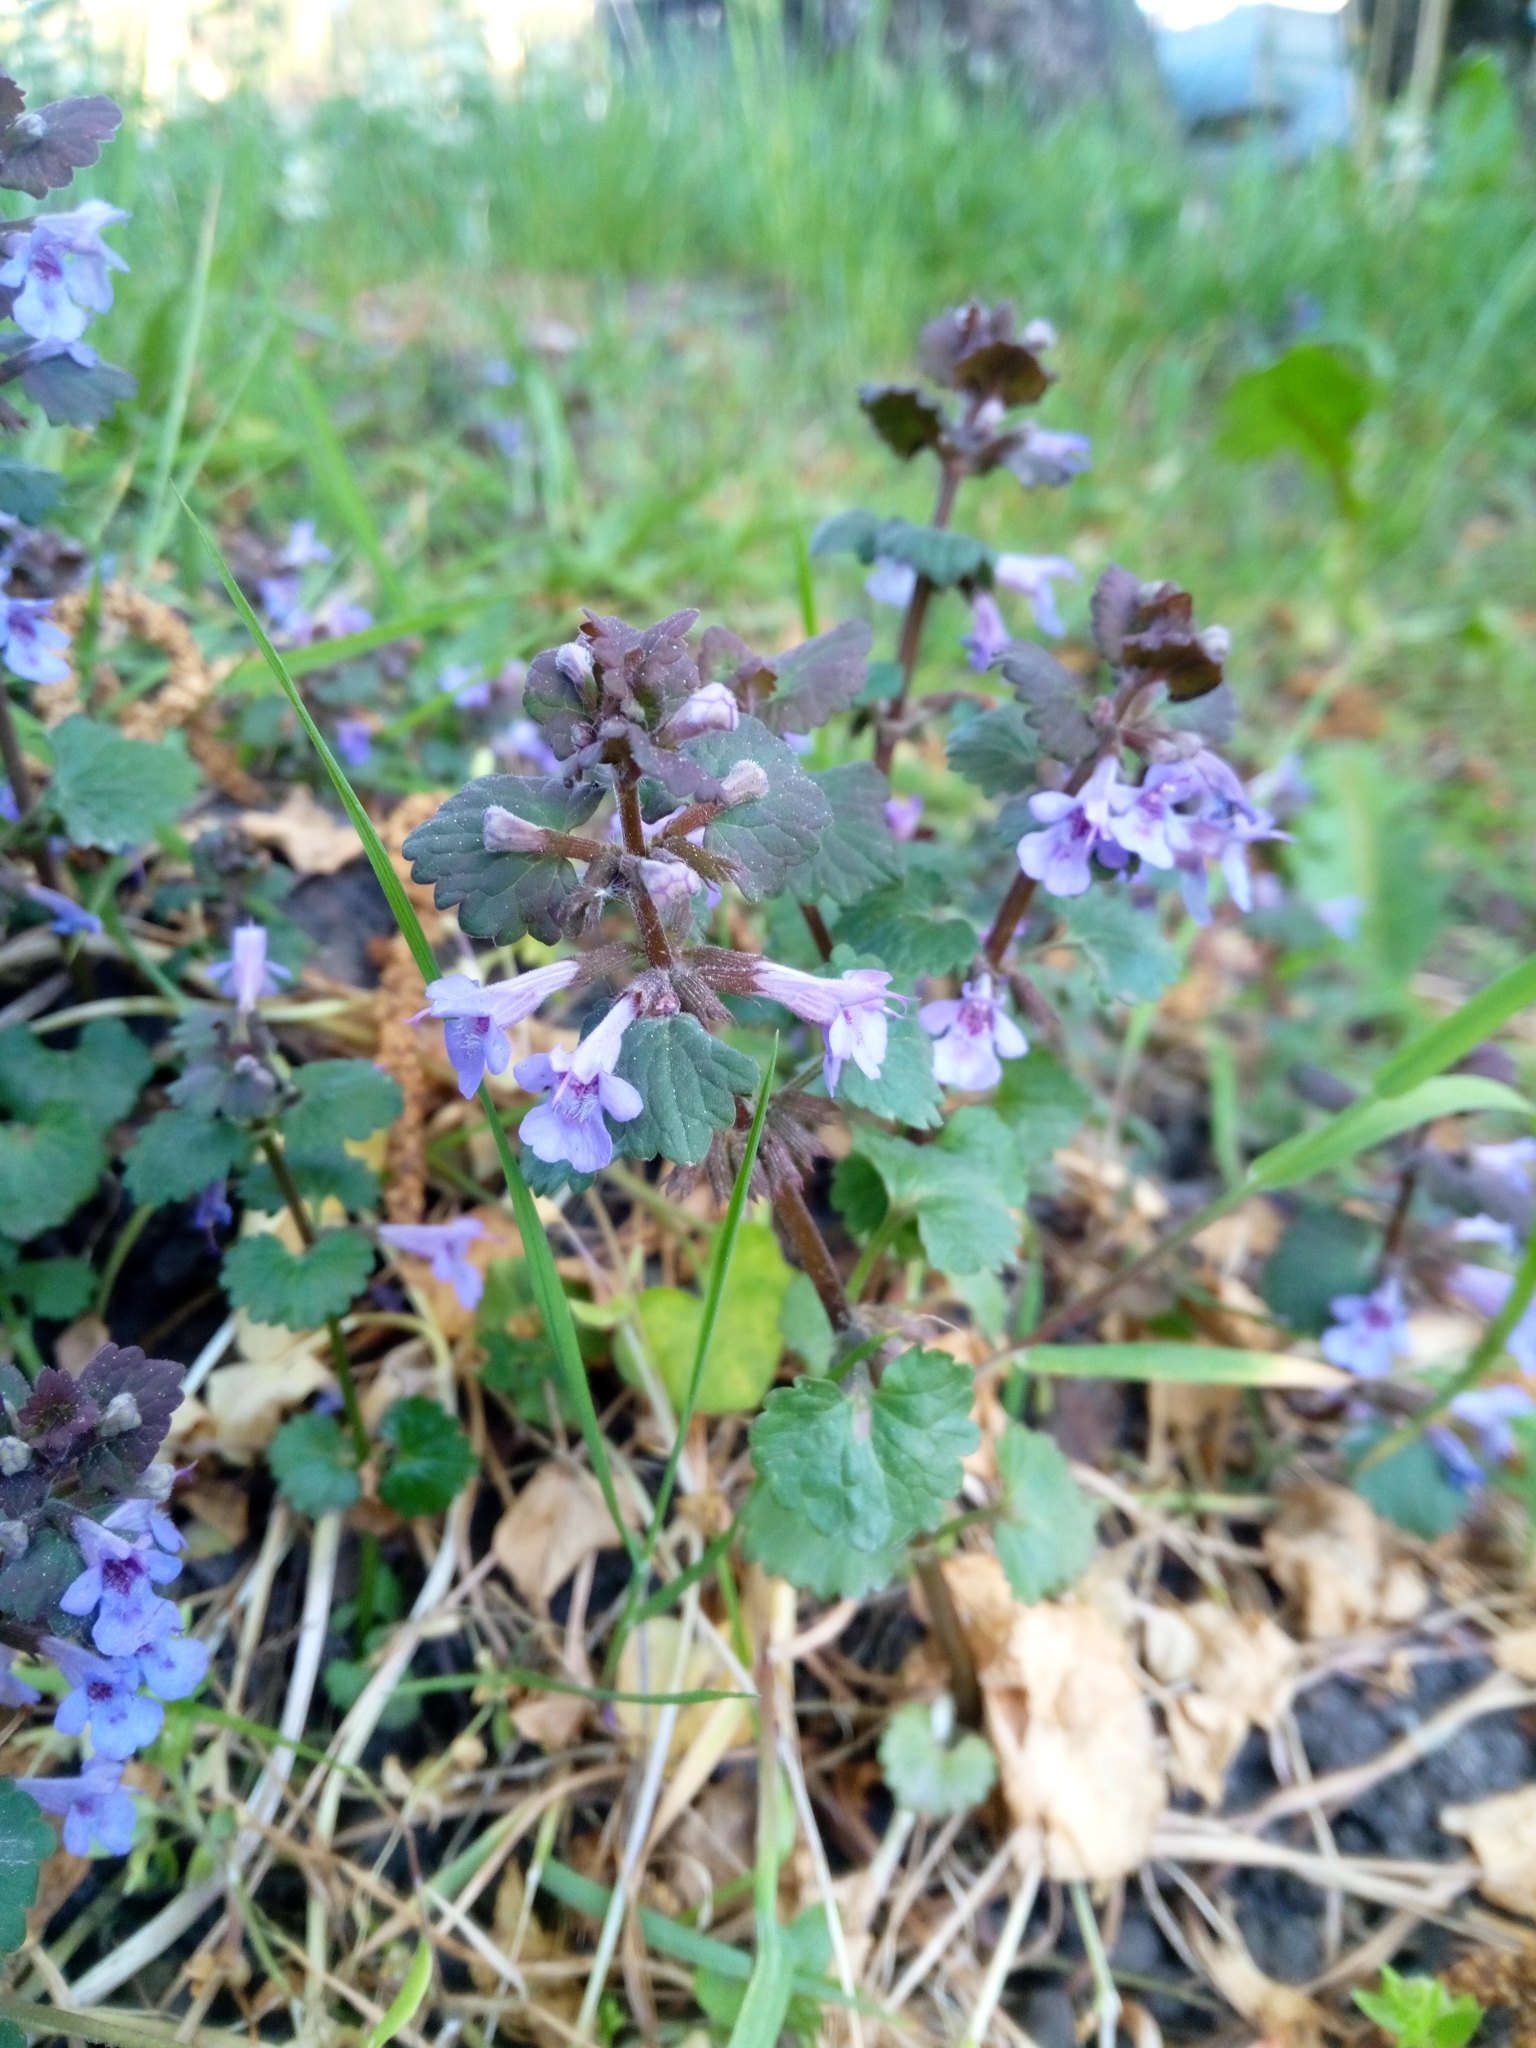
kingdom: Plantae
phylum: Tracheophyta
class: Magnoliopsida
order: Lamiales
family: Lamiaceae
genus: Glechoma
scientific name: Glechoma hederacea
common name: Ground ivy
